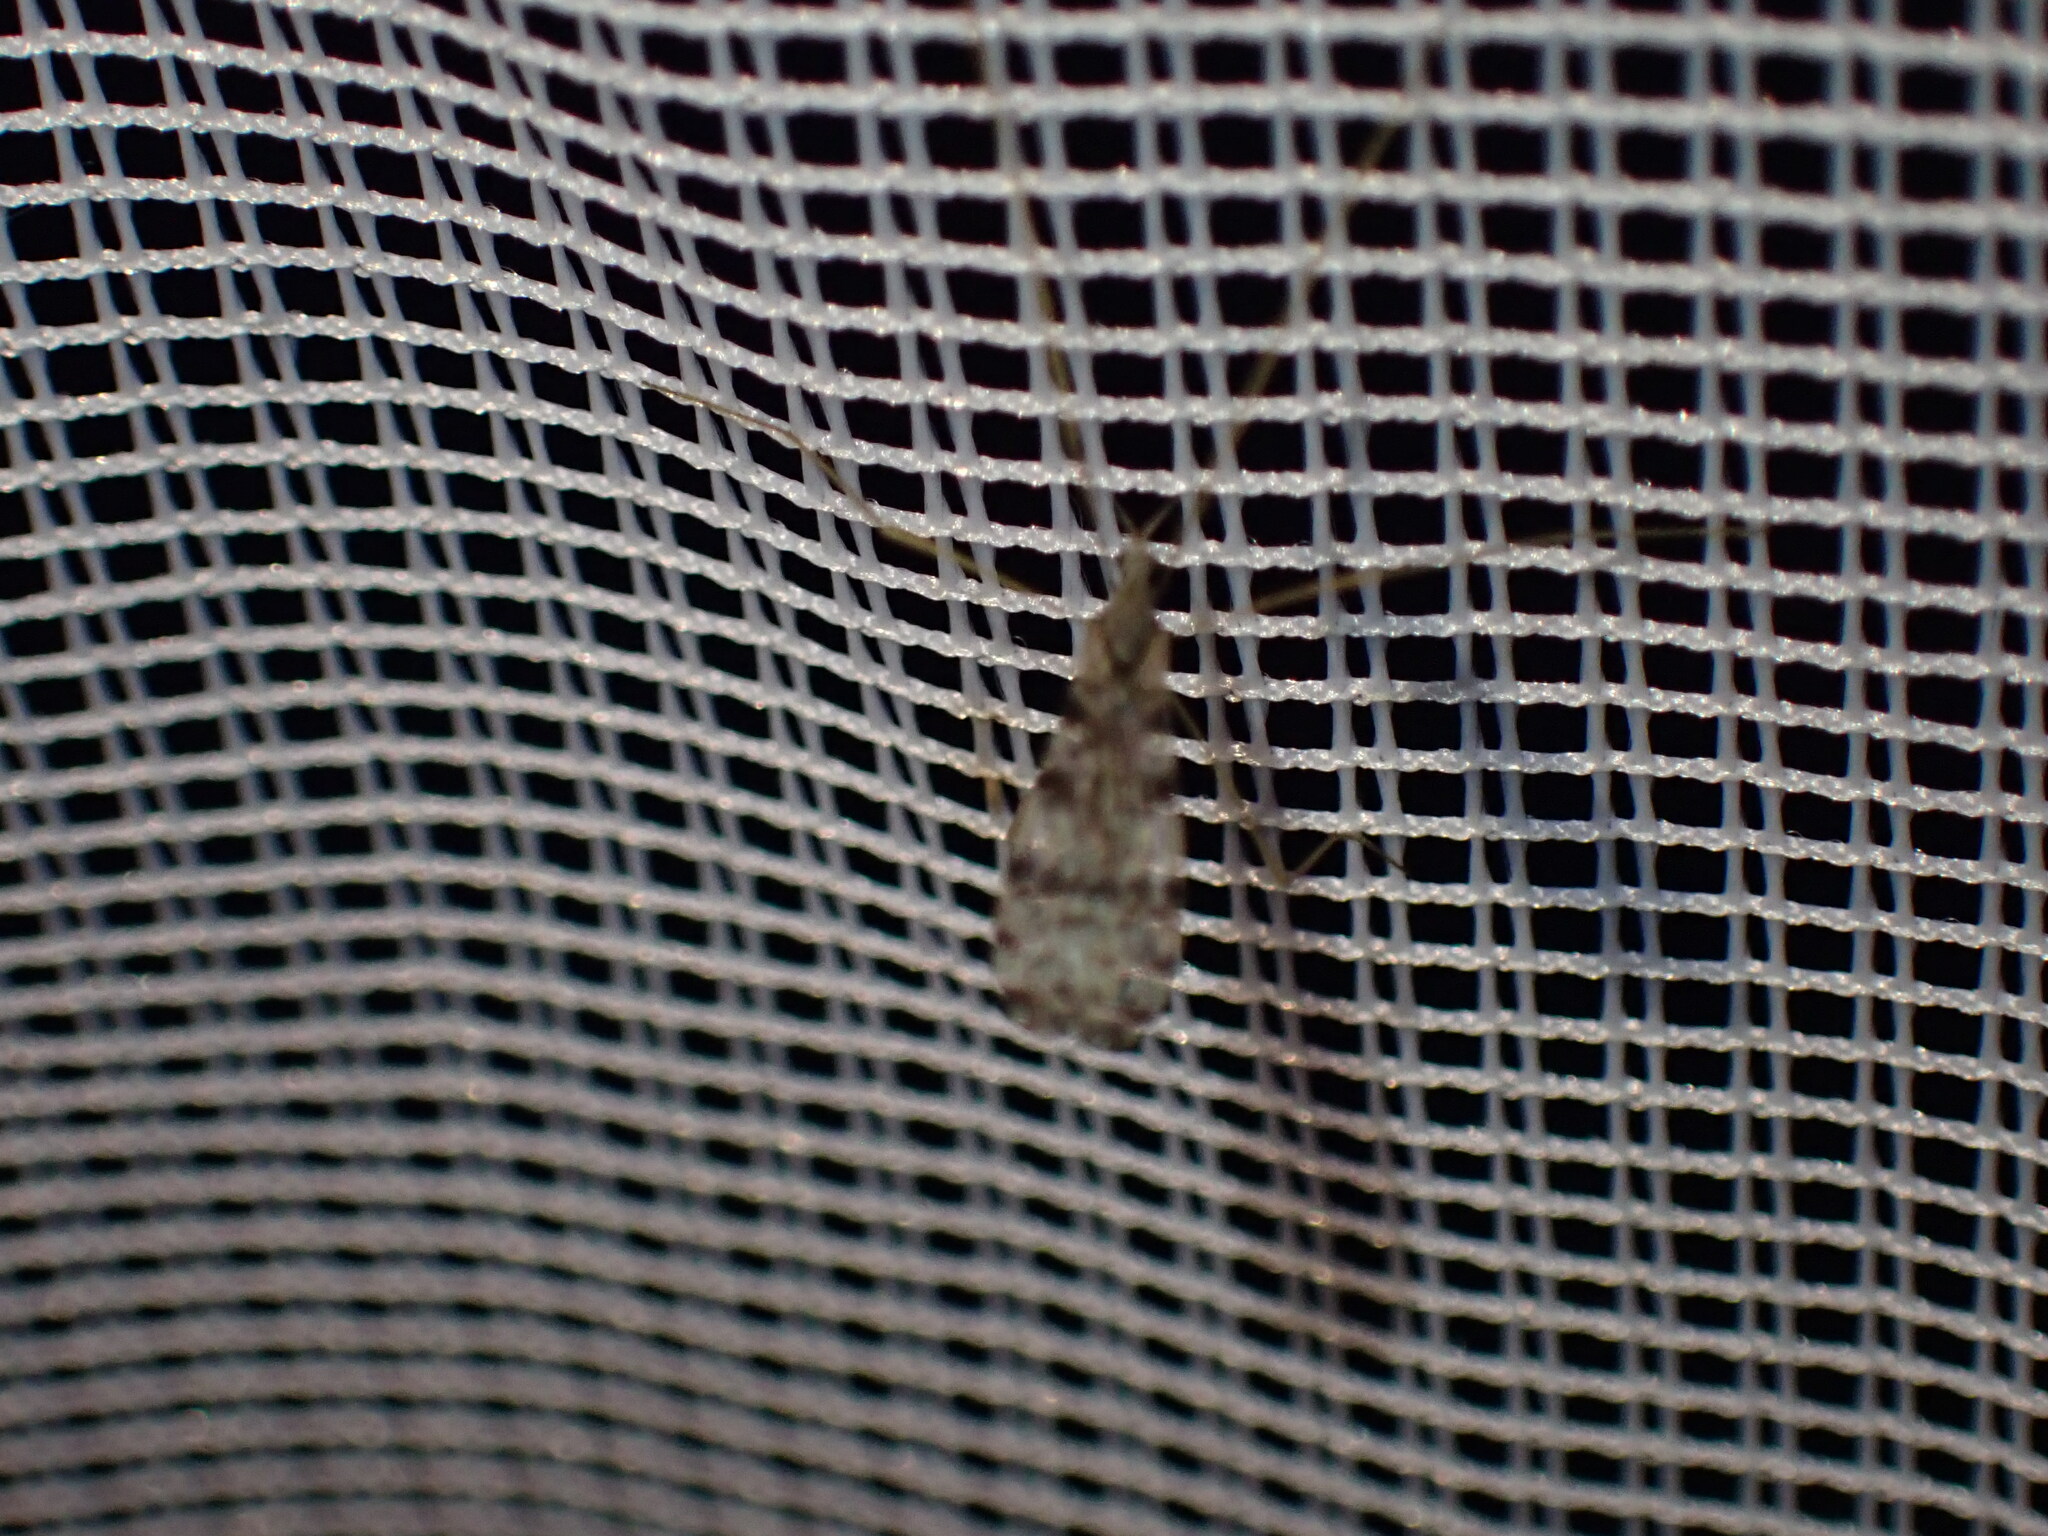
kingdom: Animalia
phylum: Arthropoda
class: Insecta
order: Diptera
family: Limoniidae
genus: Dicranophragma
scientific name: Dicranophragma fuscovarium
